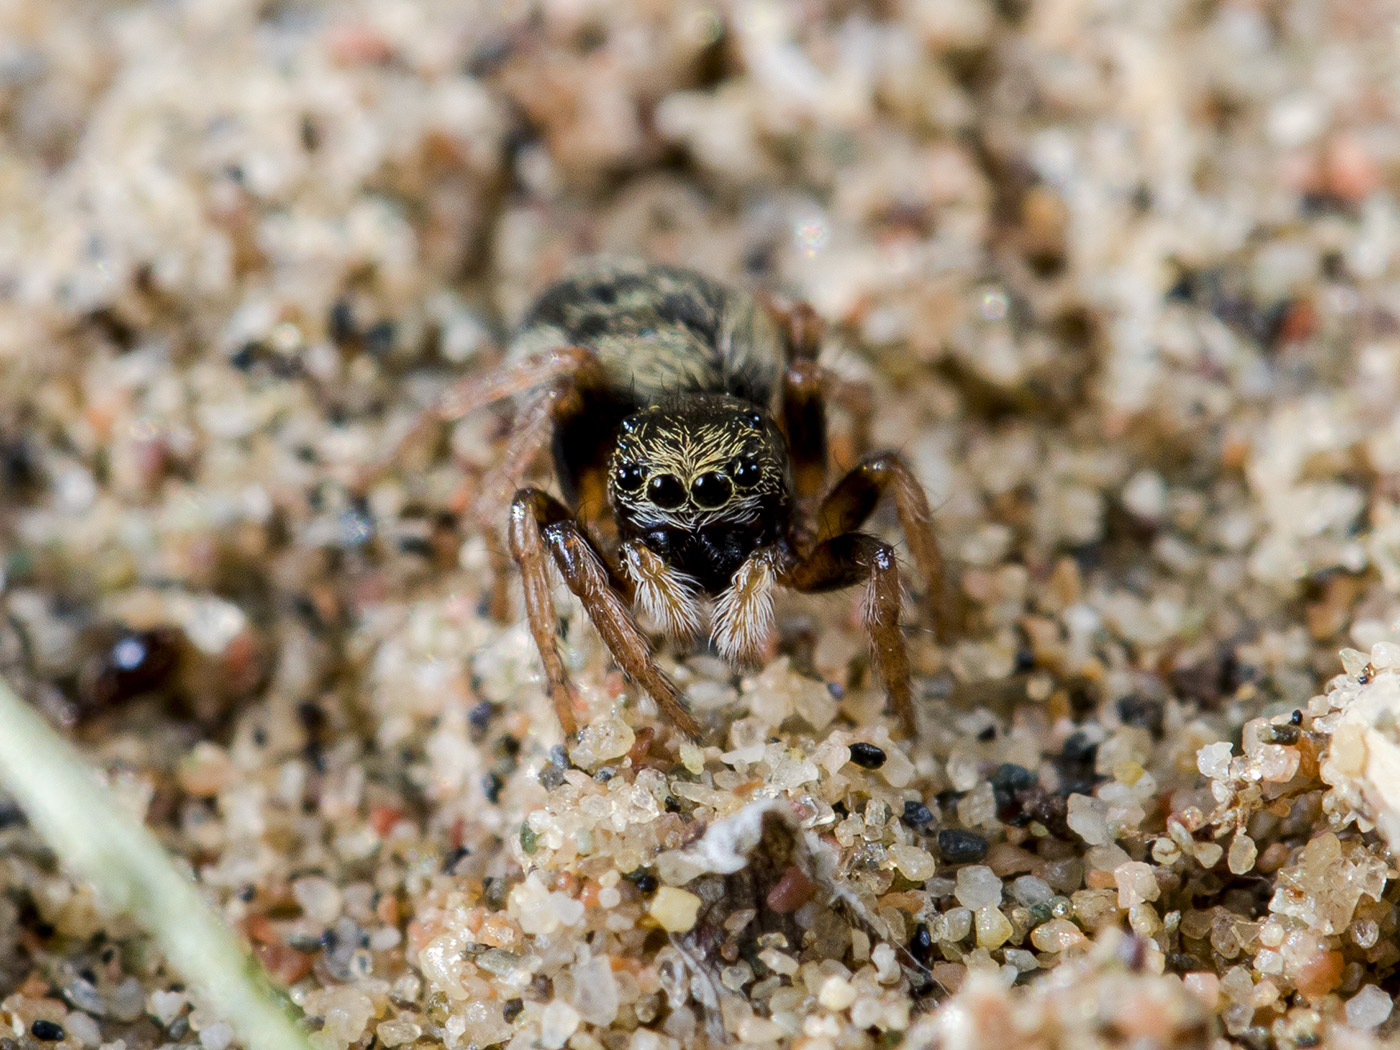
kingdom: Animalia
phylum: Arthropoda
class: Arachnida
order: Araneae
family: Salticidae
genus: Chalcoscirtus
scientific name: Chalcoscirtus karakurt
